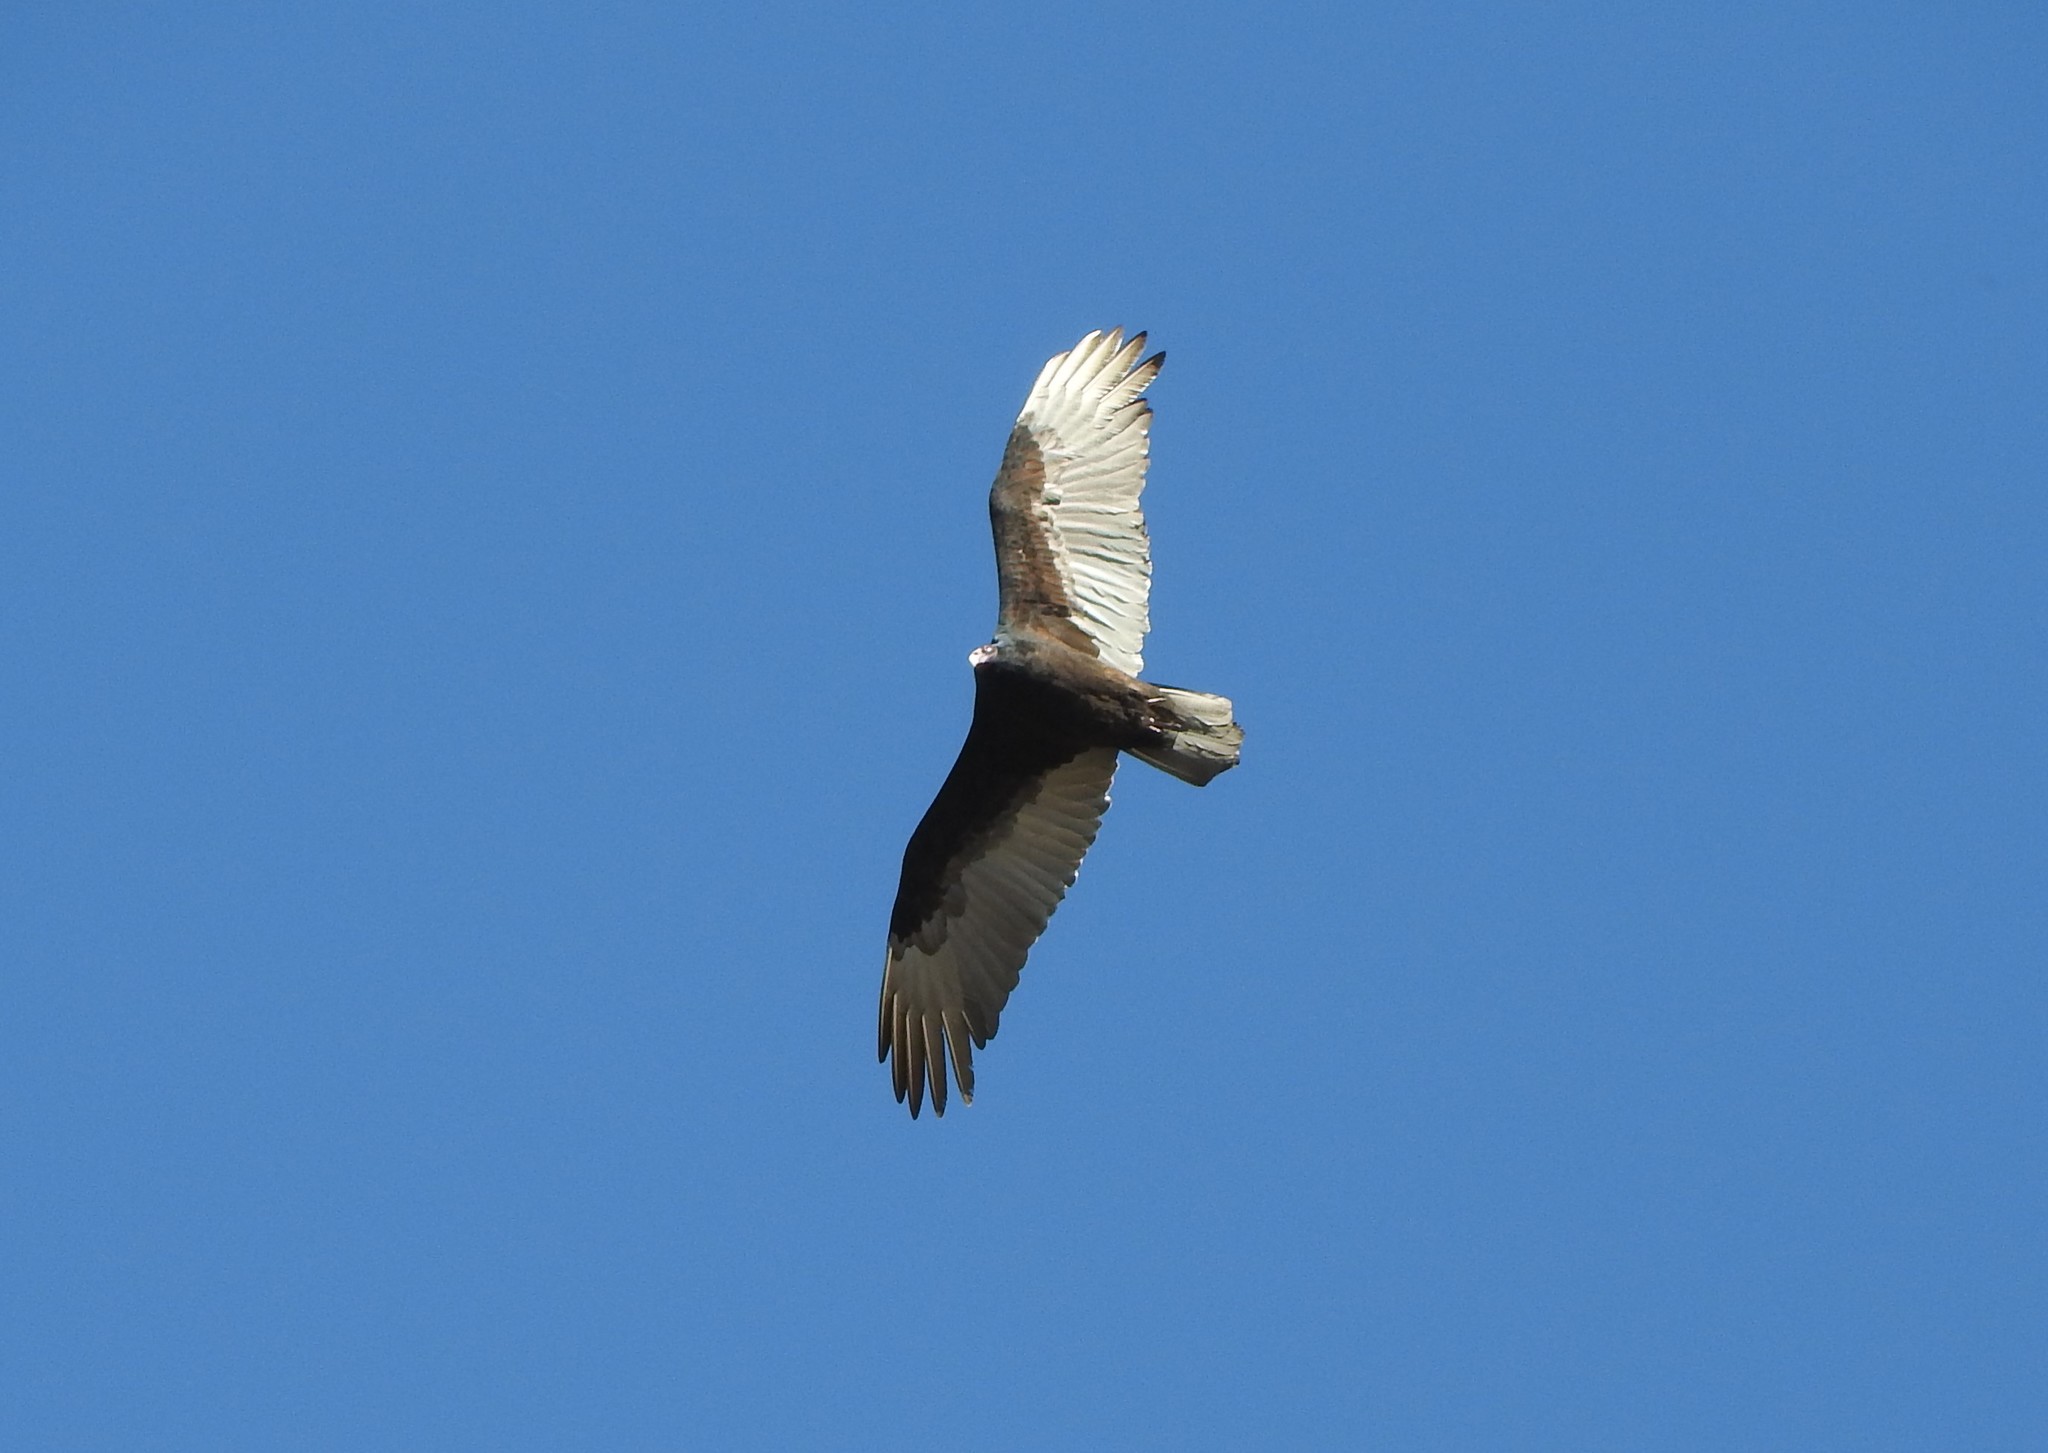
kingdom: Animalia
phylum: Chordata
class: Aves
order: Accipitriformes
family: Cathartidae
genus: Cathartes
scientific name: Cathartes aura
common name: Turkey vulture
